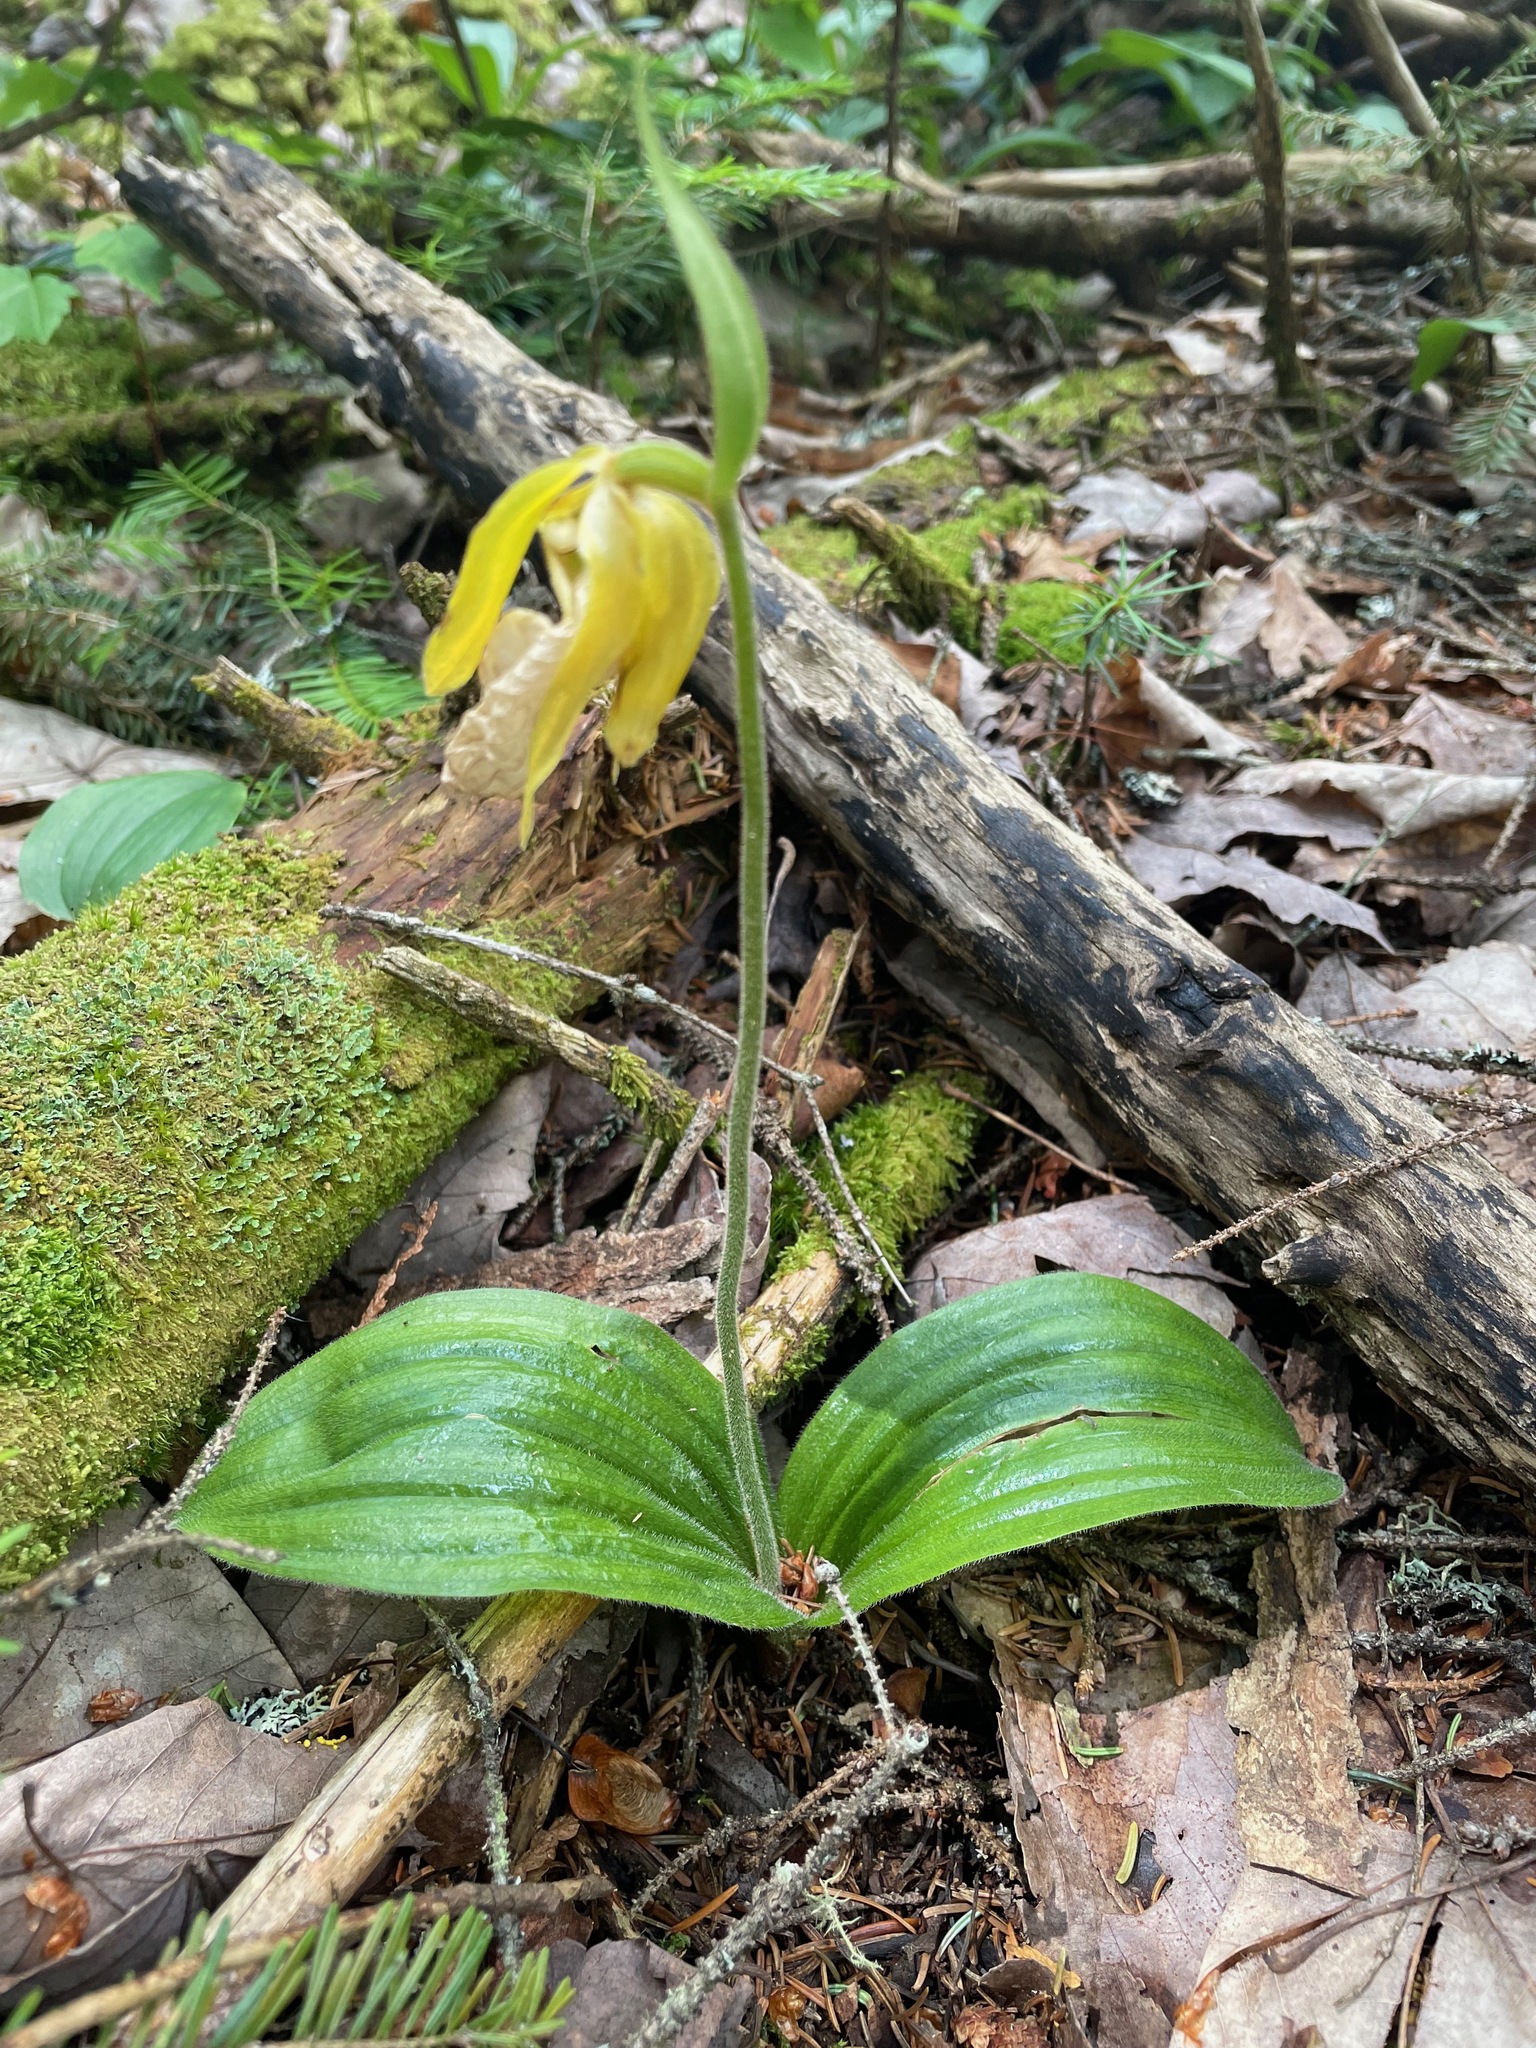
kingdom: Plantae
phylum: Tracheophyta
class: Liliopsida
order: Asparagales
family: Orchidaceae
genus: Cypripedium
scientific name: Cypripedium acaule
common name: Pink lady's-slipper
